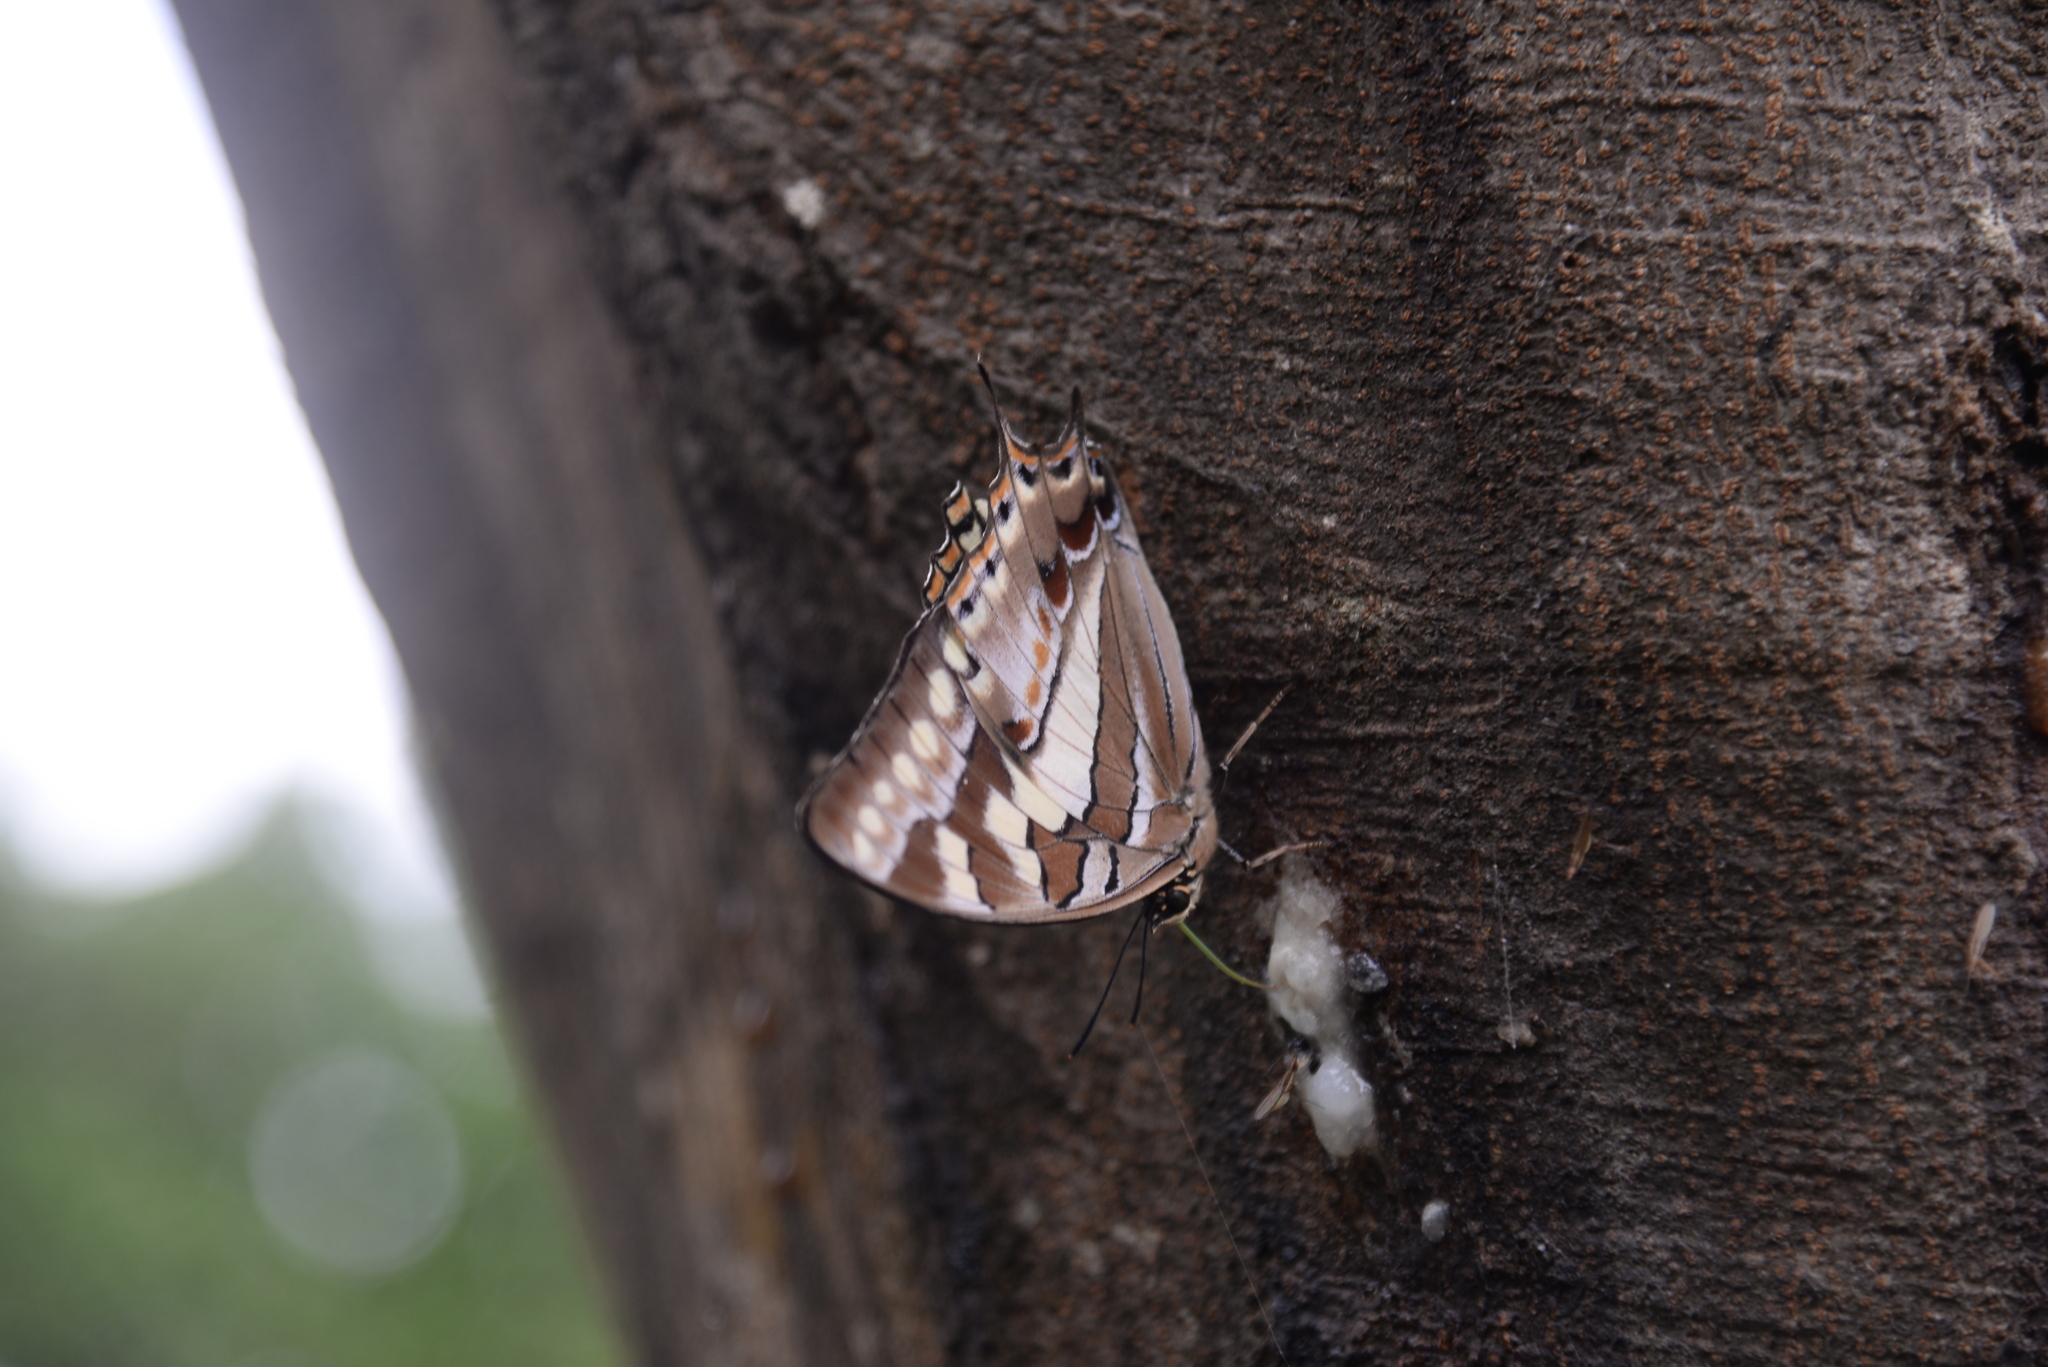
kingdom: Animalia
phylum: Arthropoda
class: Insecta
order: Lepidoptera
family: Nymphalidae
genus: Polyura
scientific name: Polyura sacco
